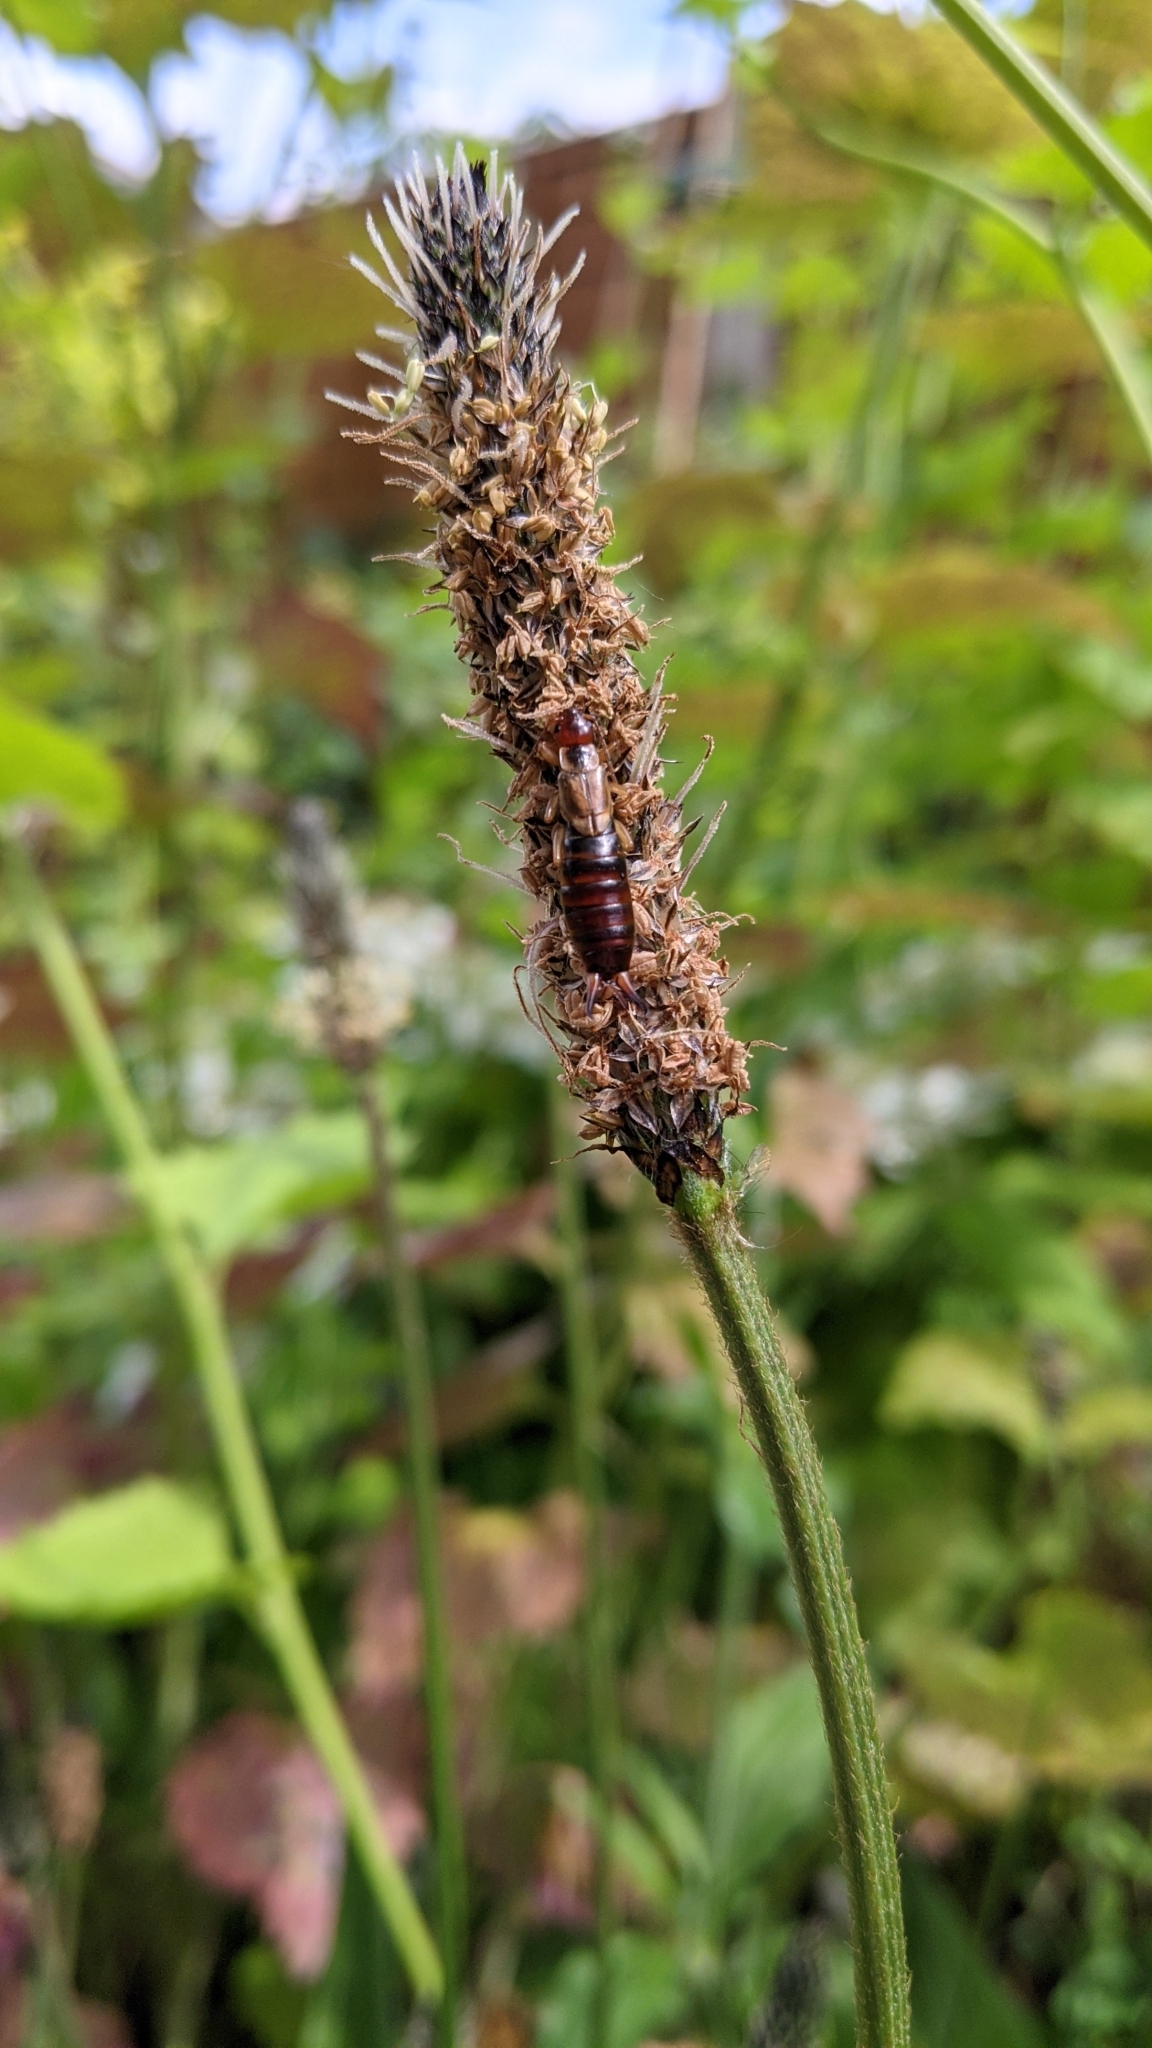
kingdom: Animalia
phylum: Arthropoda
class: Insecta
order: Dermaptera
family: Forficulidae
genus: Forficula
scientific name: Forficula
